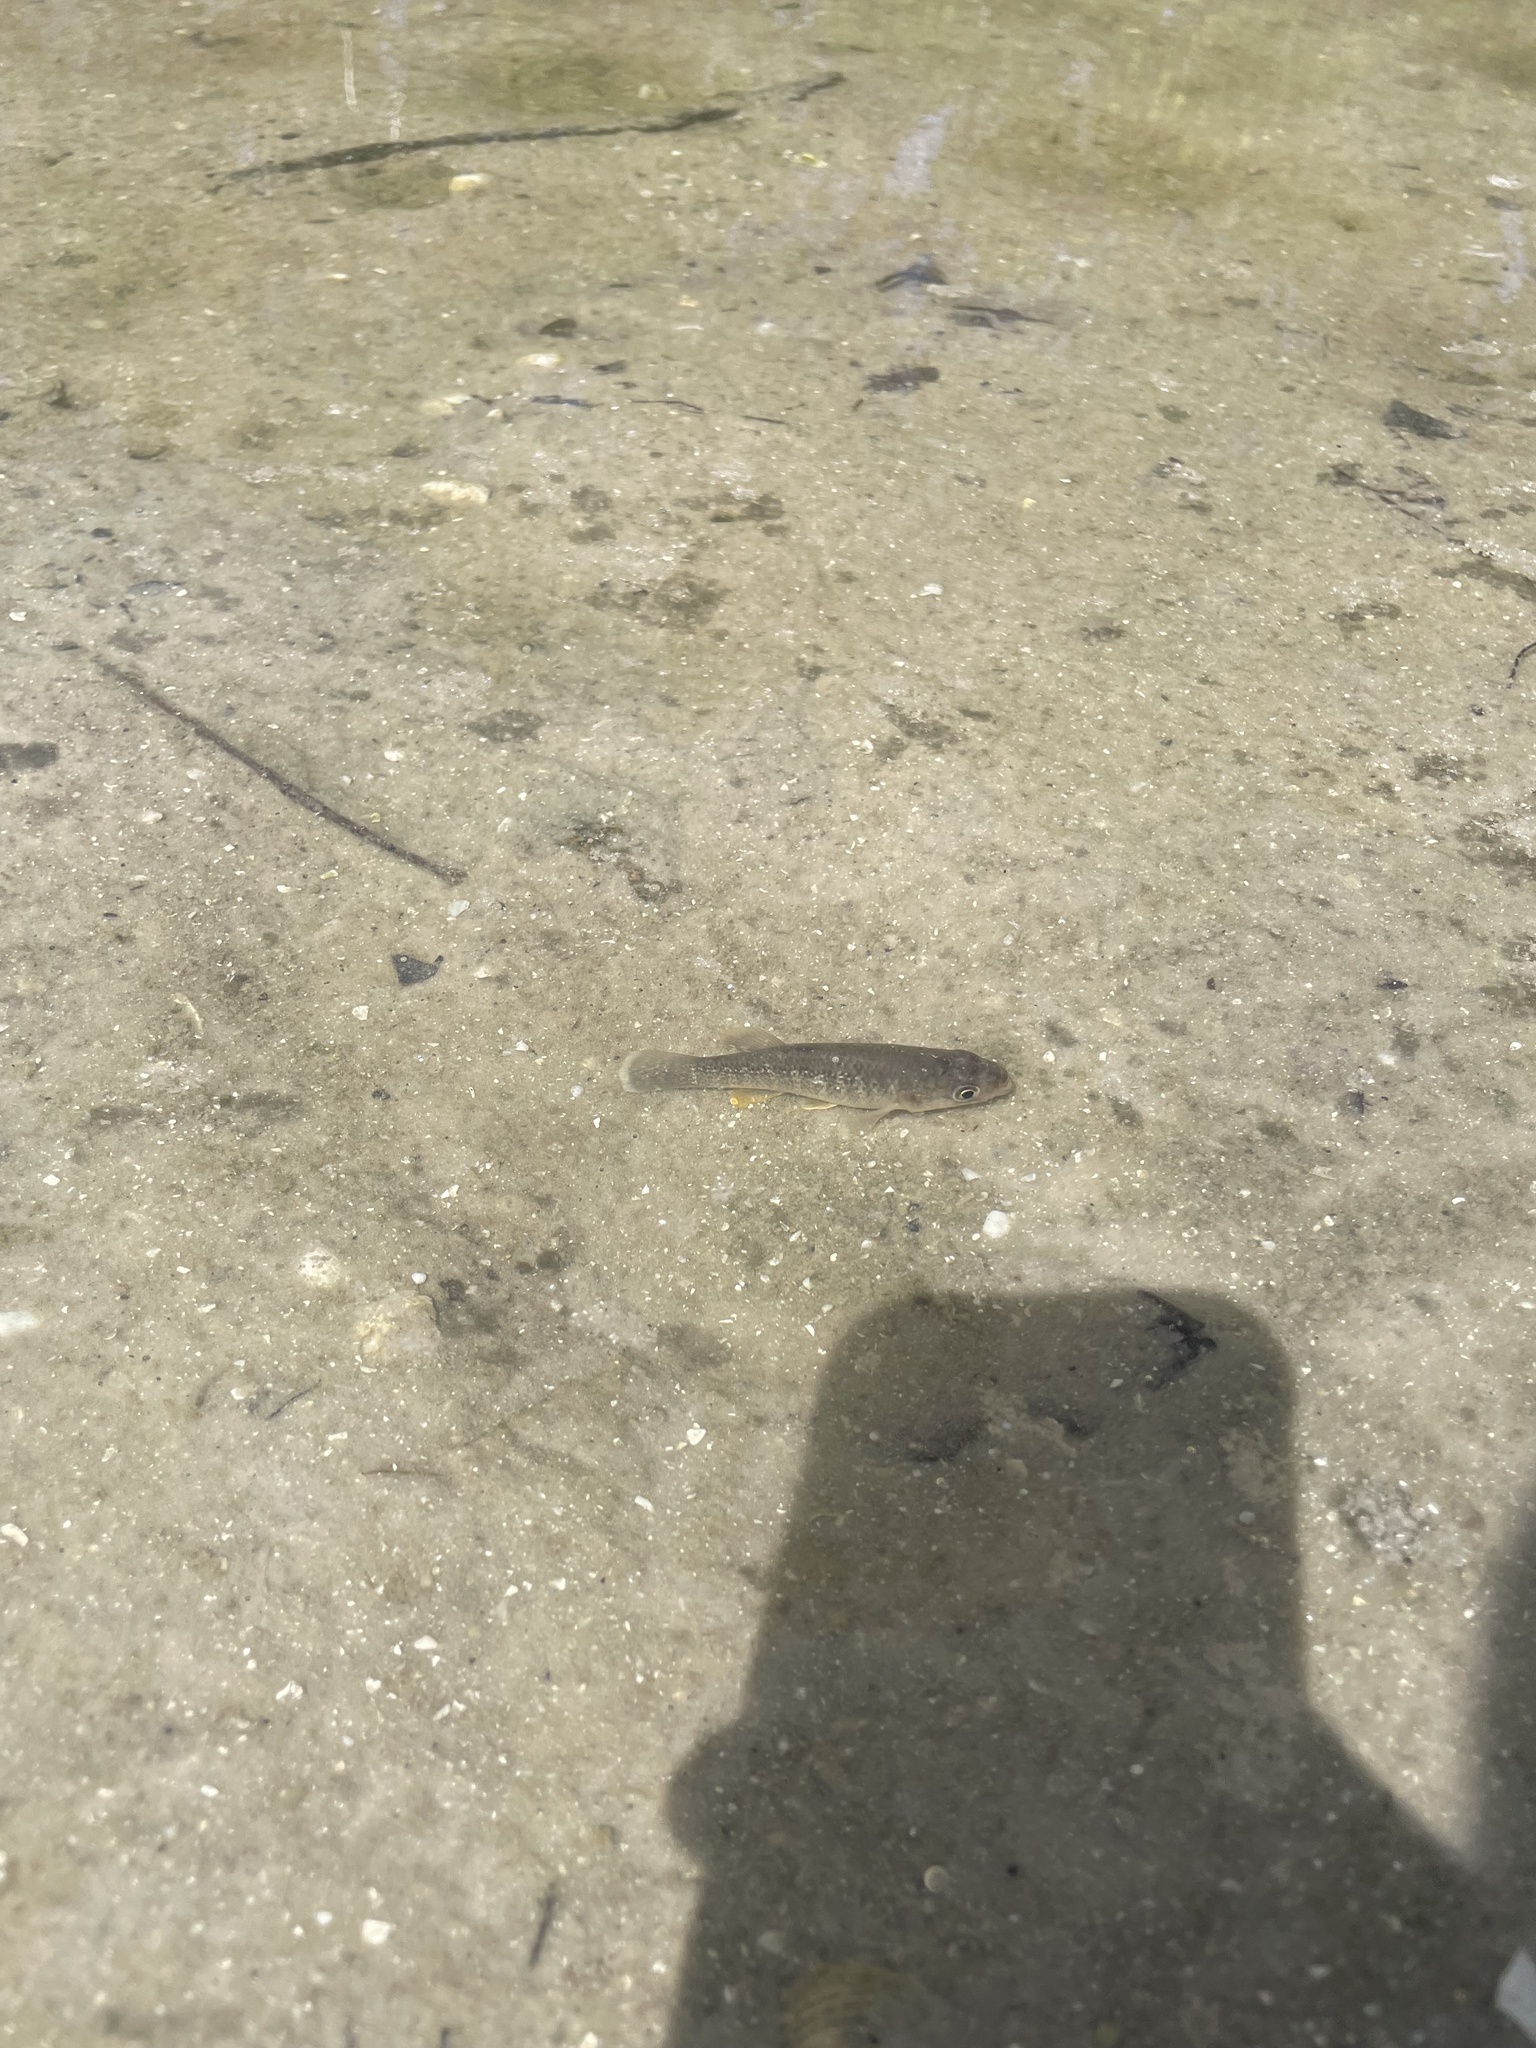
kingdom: Animalia
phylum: Chordata
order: Cyprinodontiformes
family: Fundulidae
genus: Fundulus
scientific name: Fundulus grandis
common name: Gulf killifish
